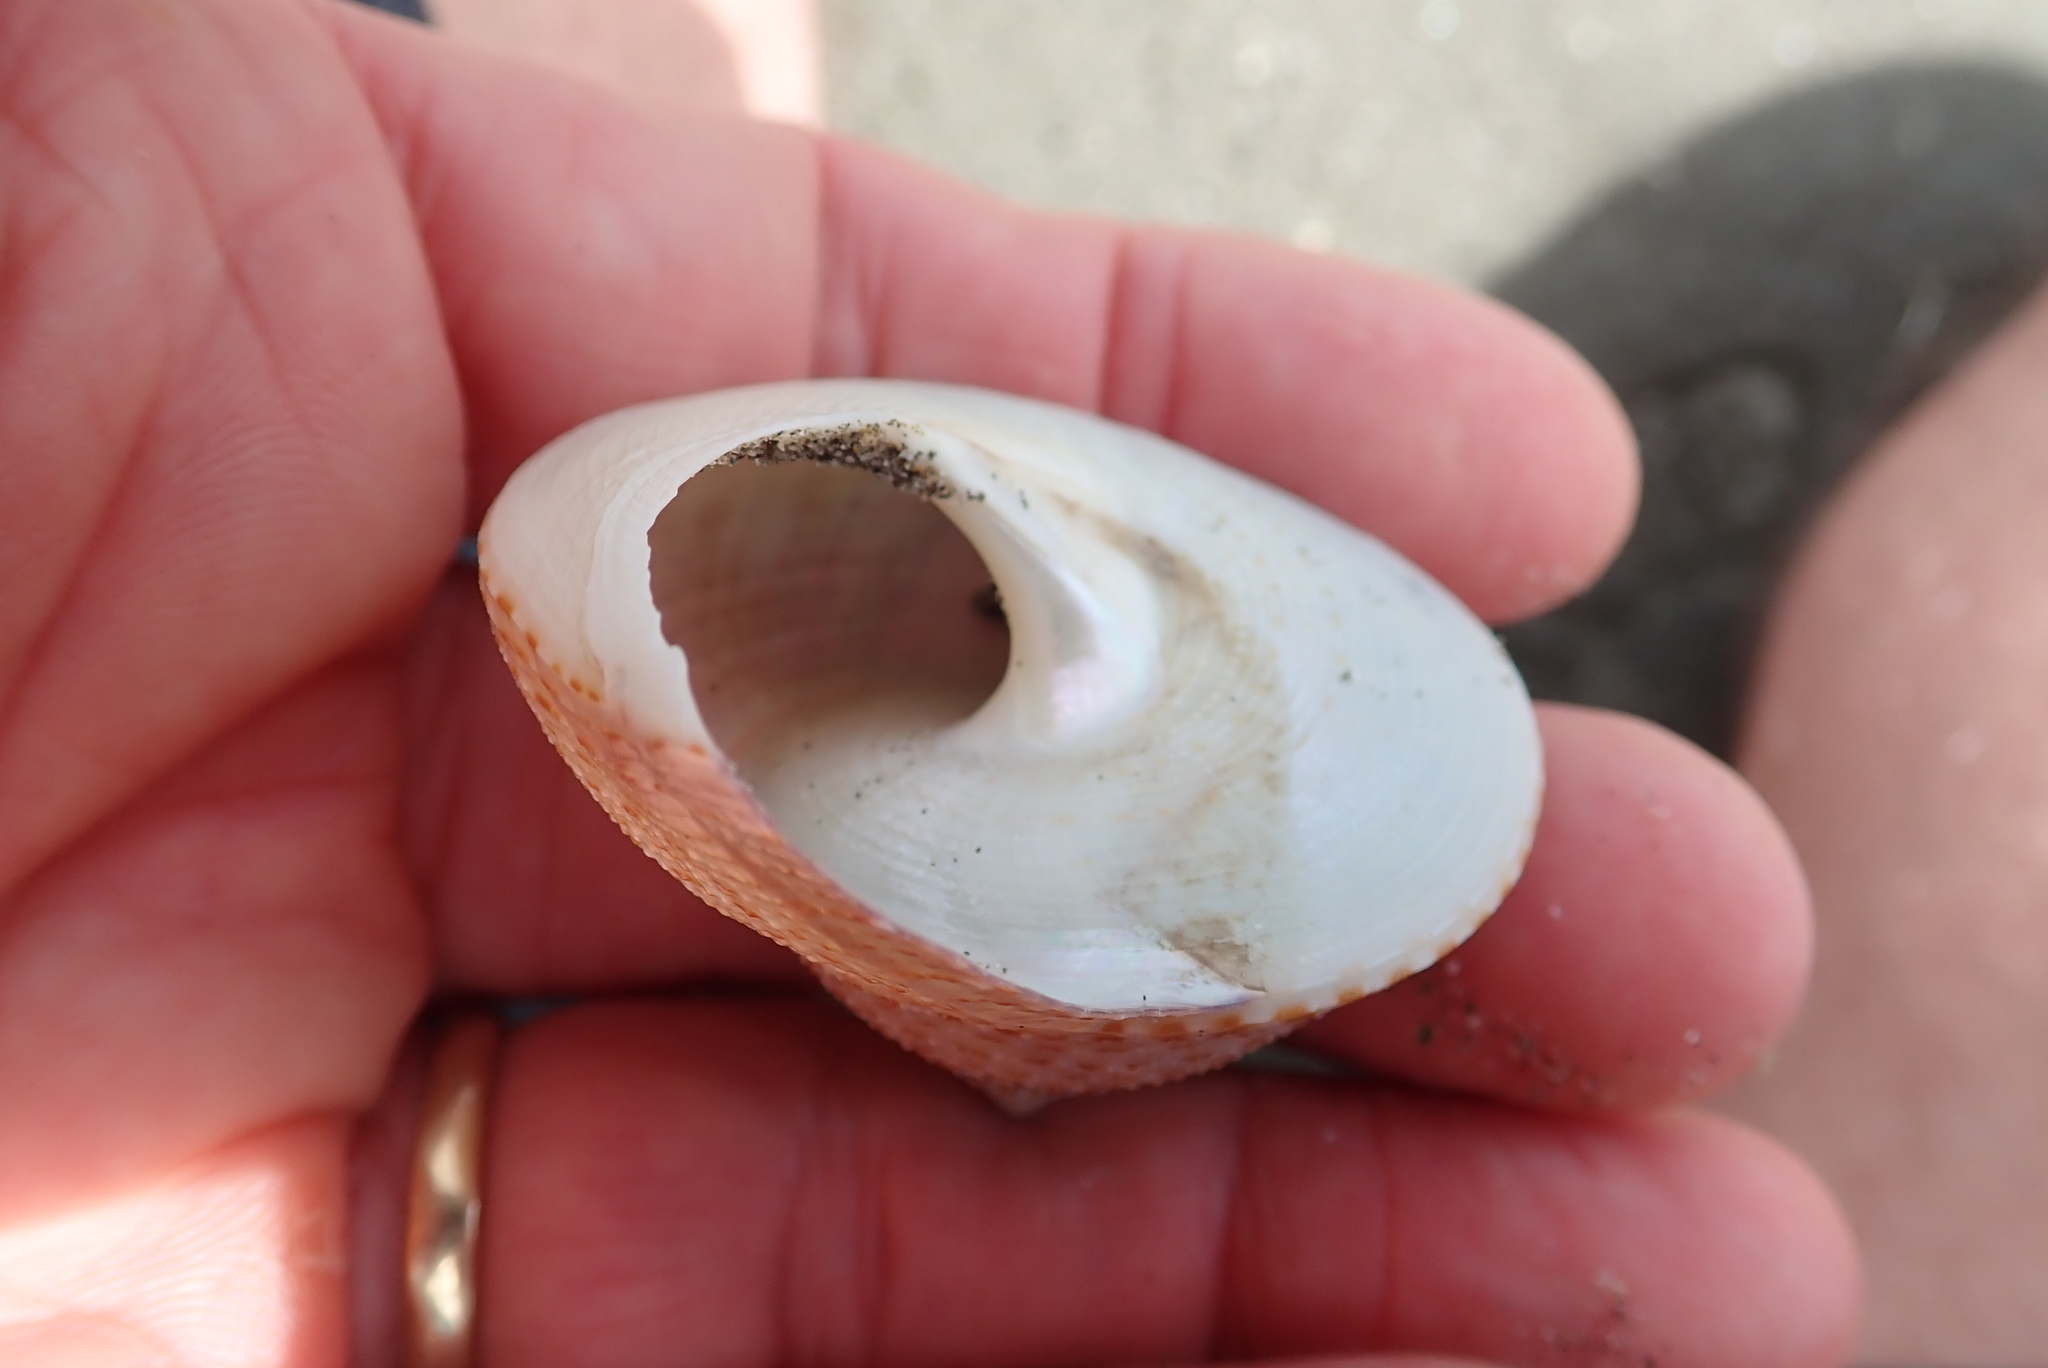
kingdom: Animalia
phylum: Mollusca
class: Gastropoda
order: Trochida
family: Calliostomatidae
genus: Maurea
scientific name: Maurea selecta
